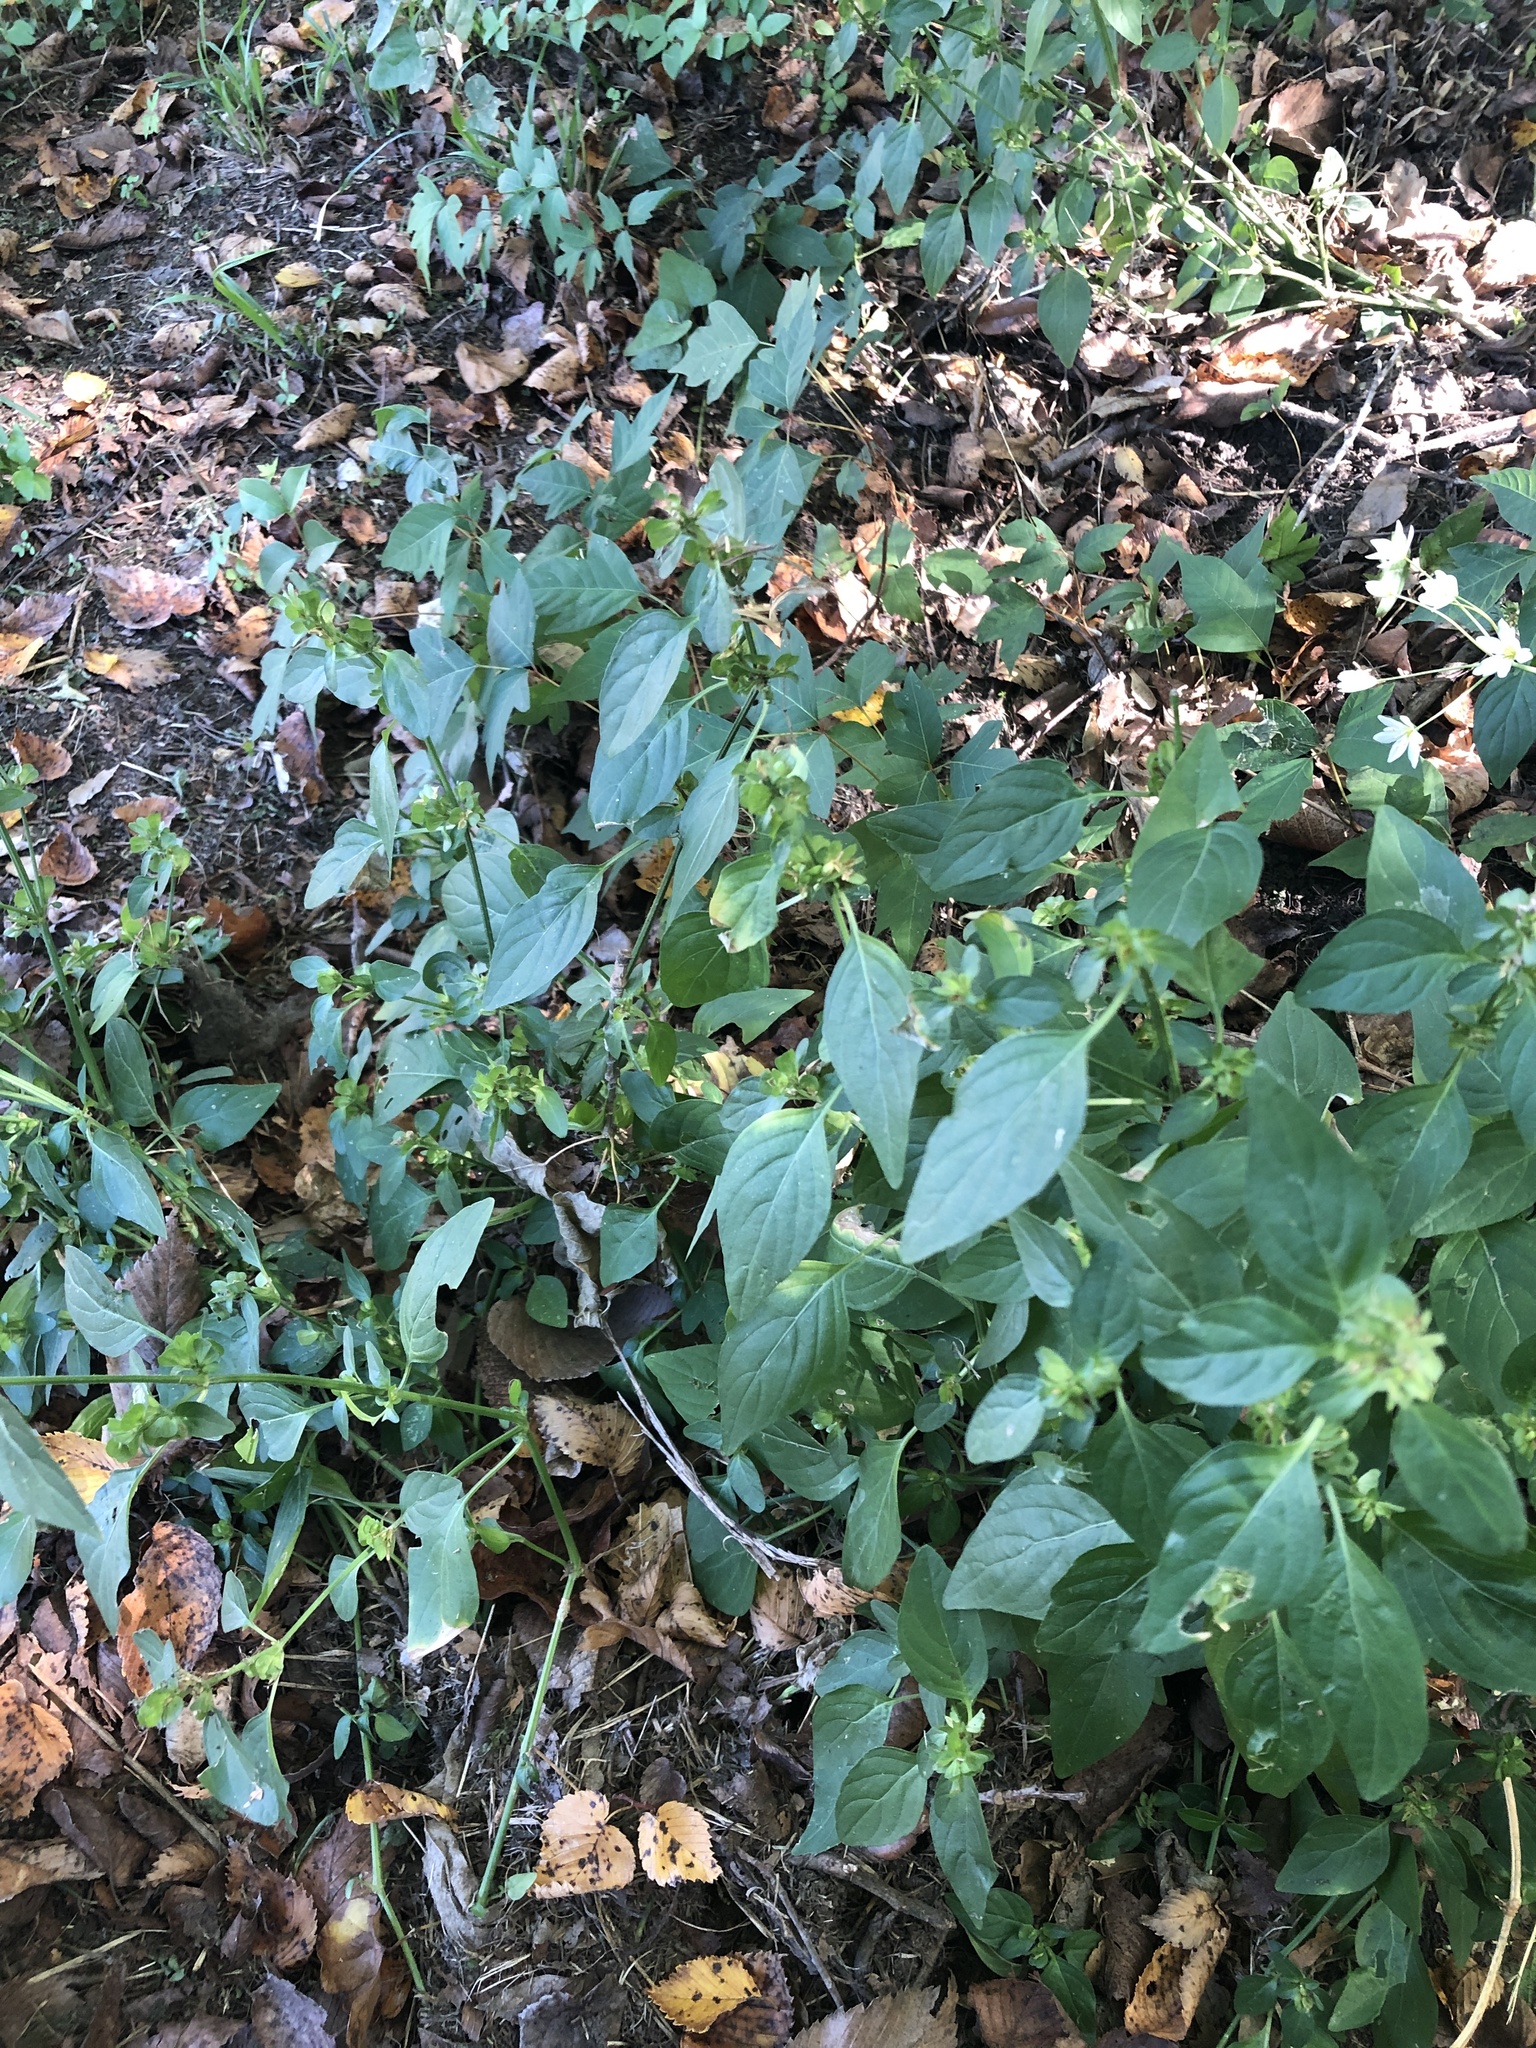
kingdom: Plantae
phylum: Tracheophyta
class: Magnoliopsida
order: Lamiales
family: Acanthaceae
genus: Dicliptera
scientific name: Dicliptera brachiata
